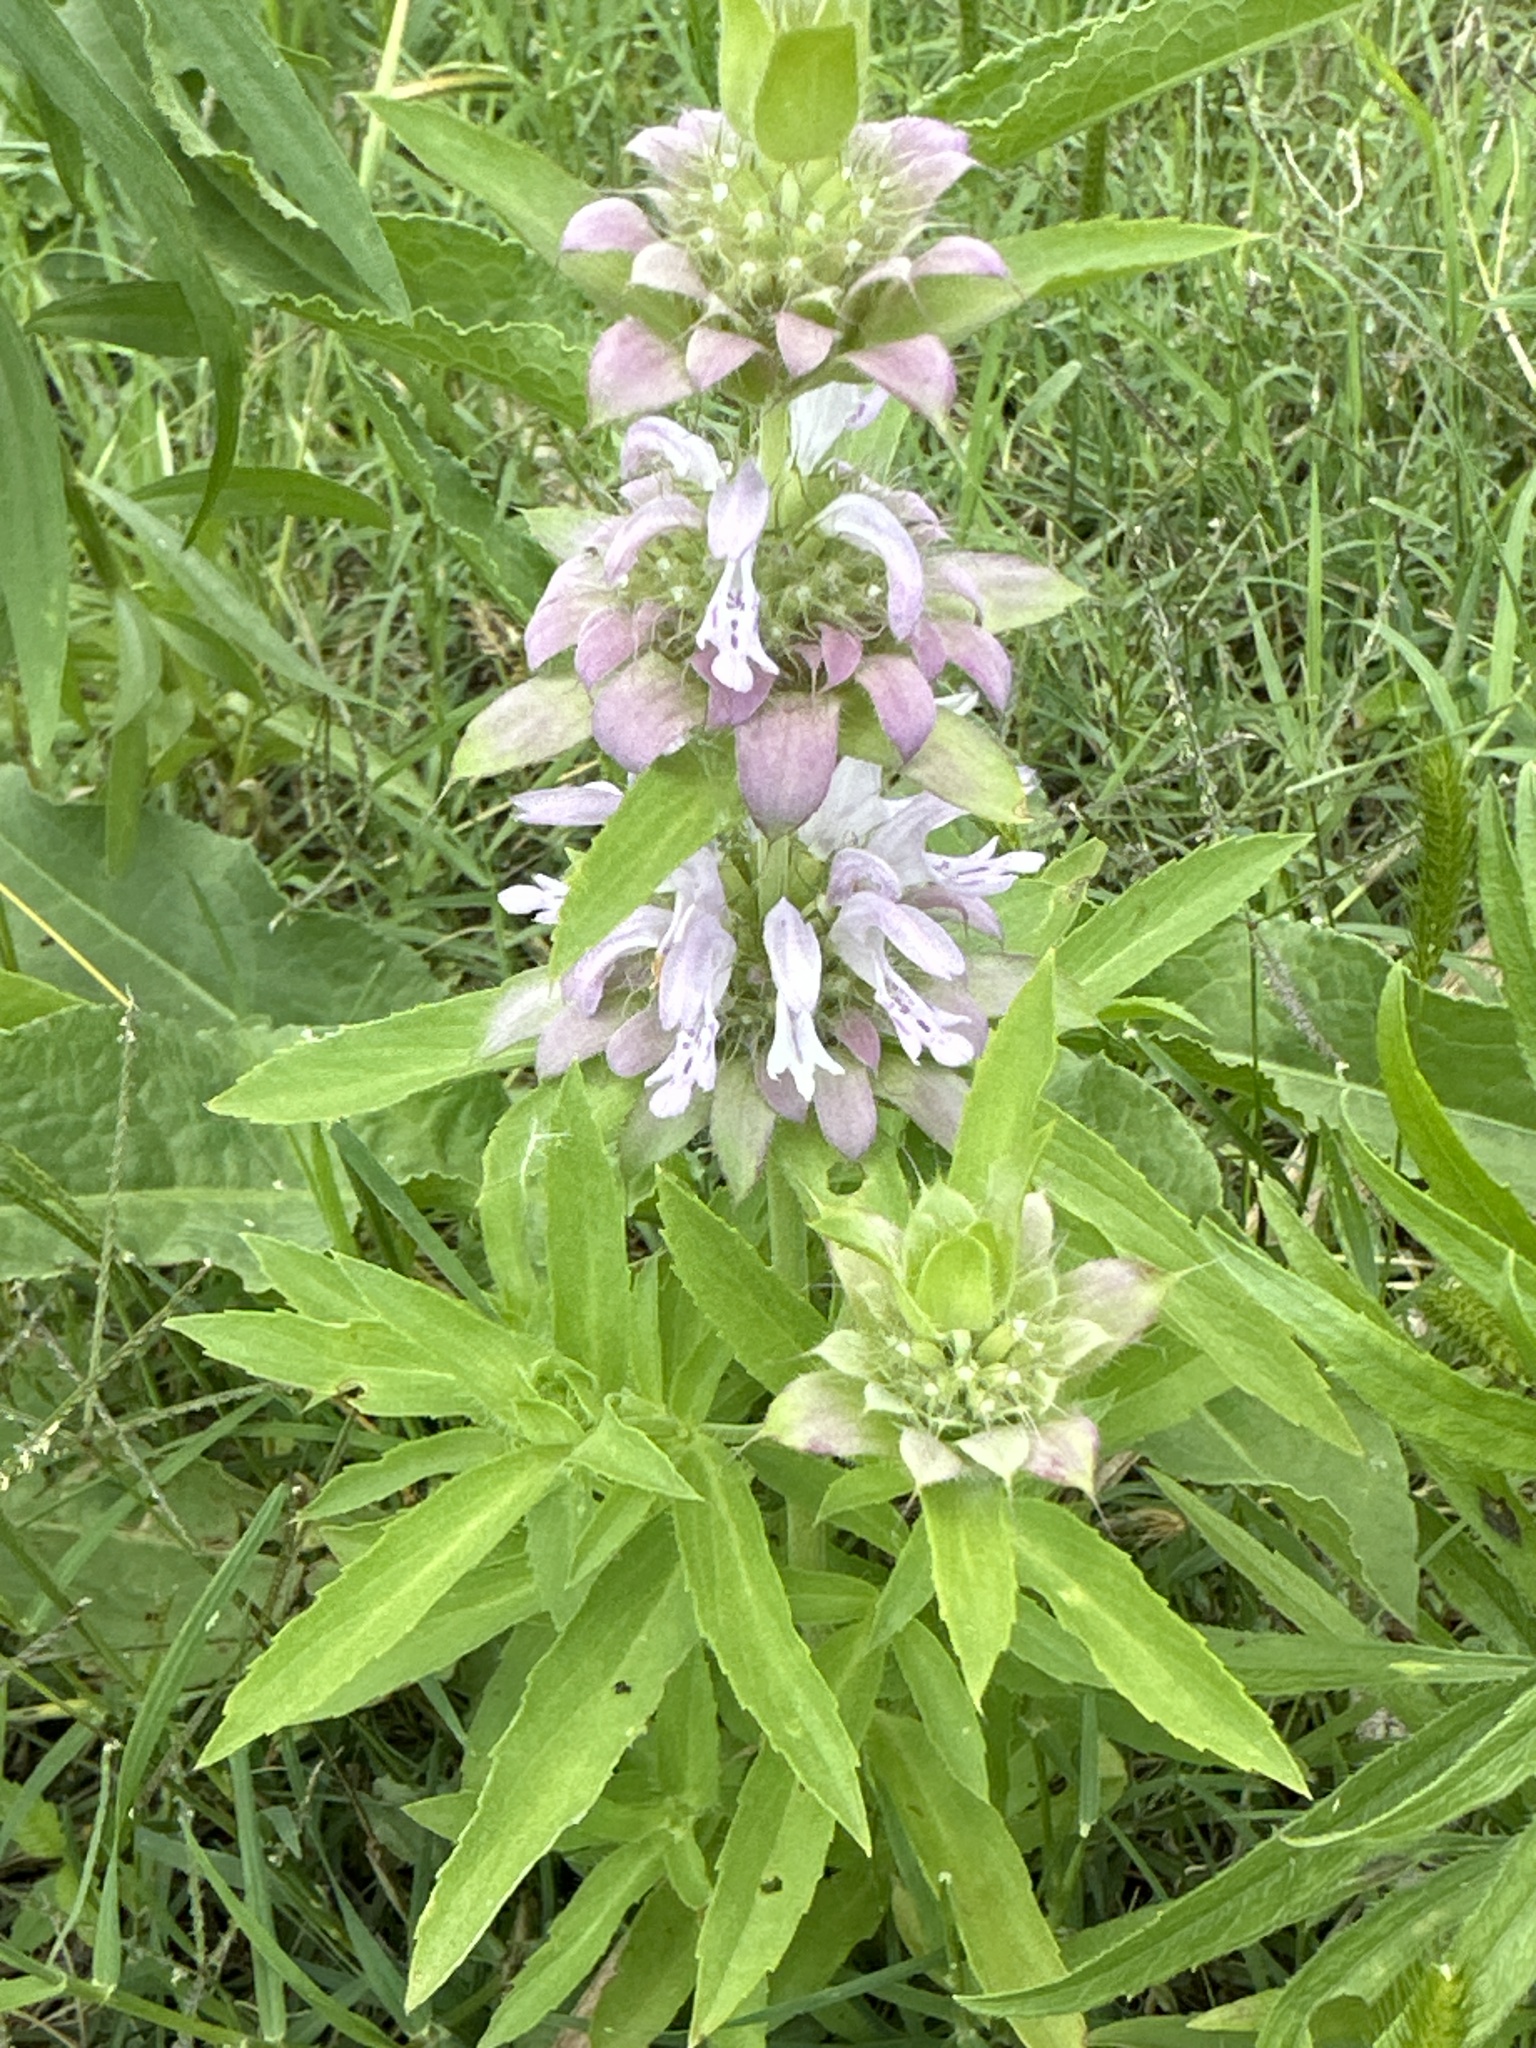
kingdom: Plantae
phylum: Tracheophyta
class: Magnoliopsida
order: Lamiales
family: Lamiaceae
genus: Monarda
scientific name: Monarda citriodora
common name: Lemon beebalm
